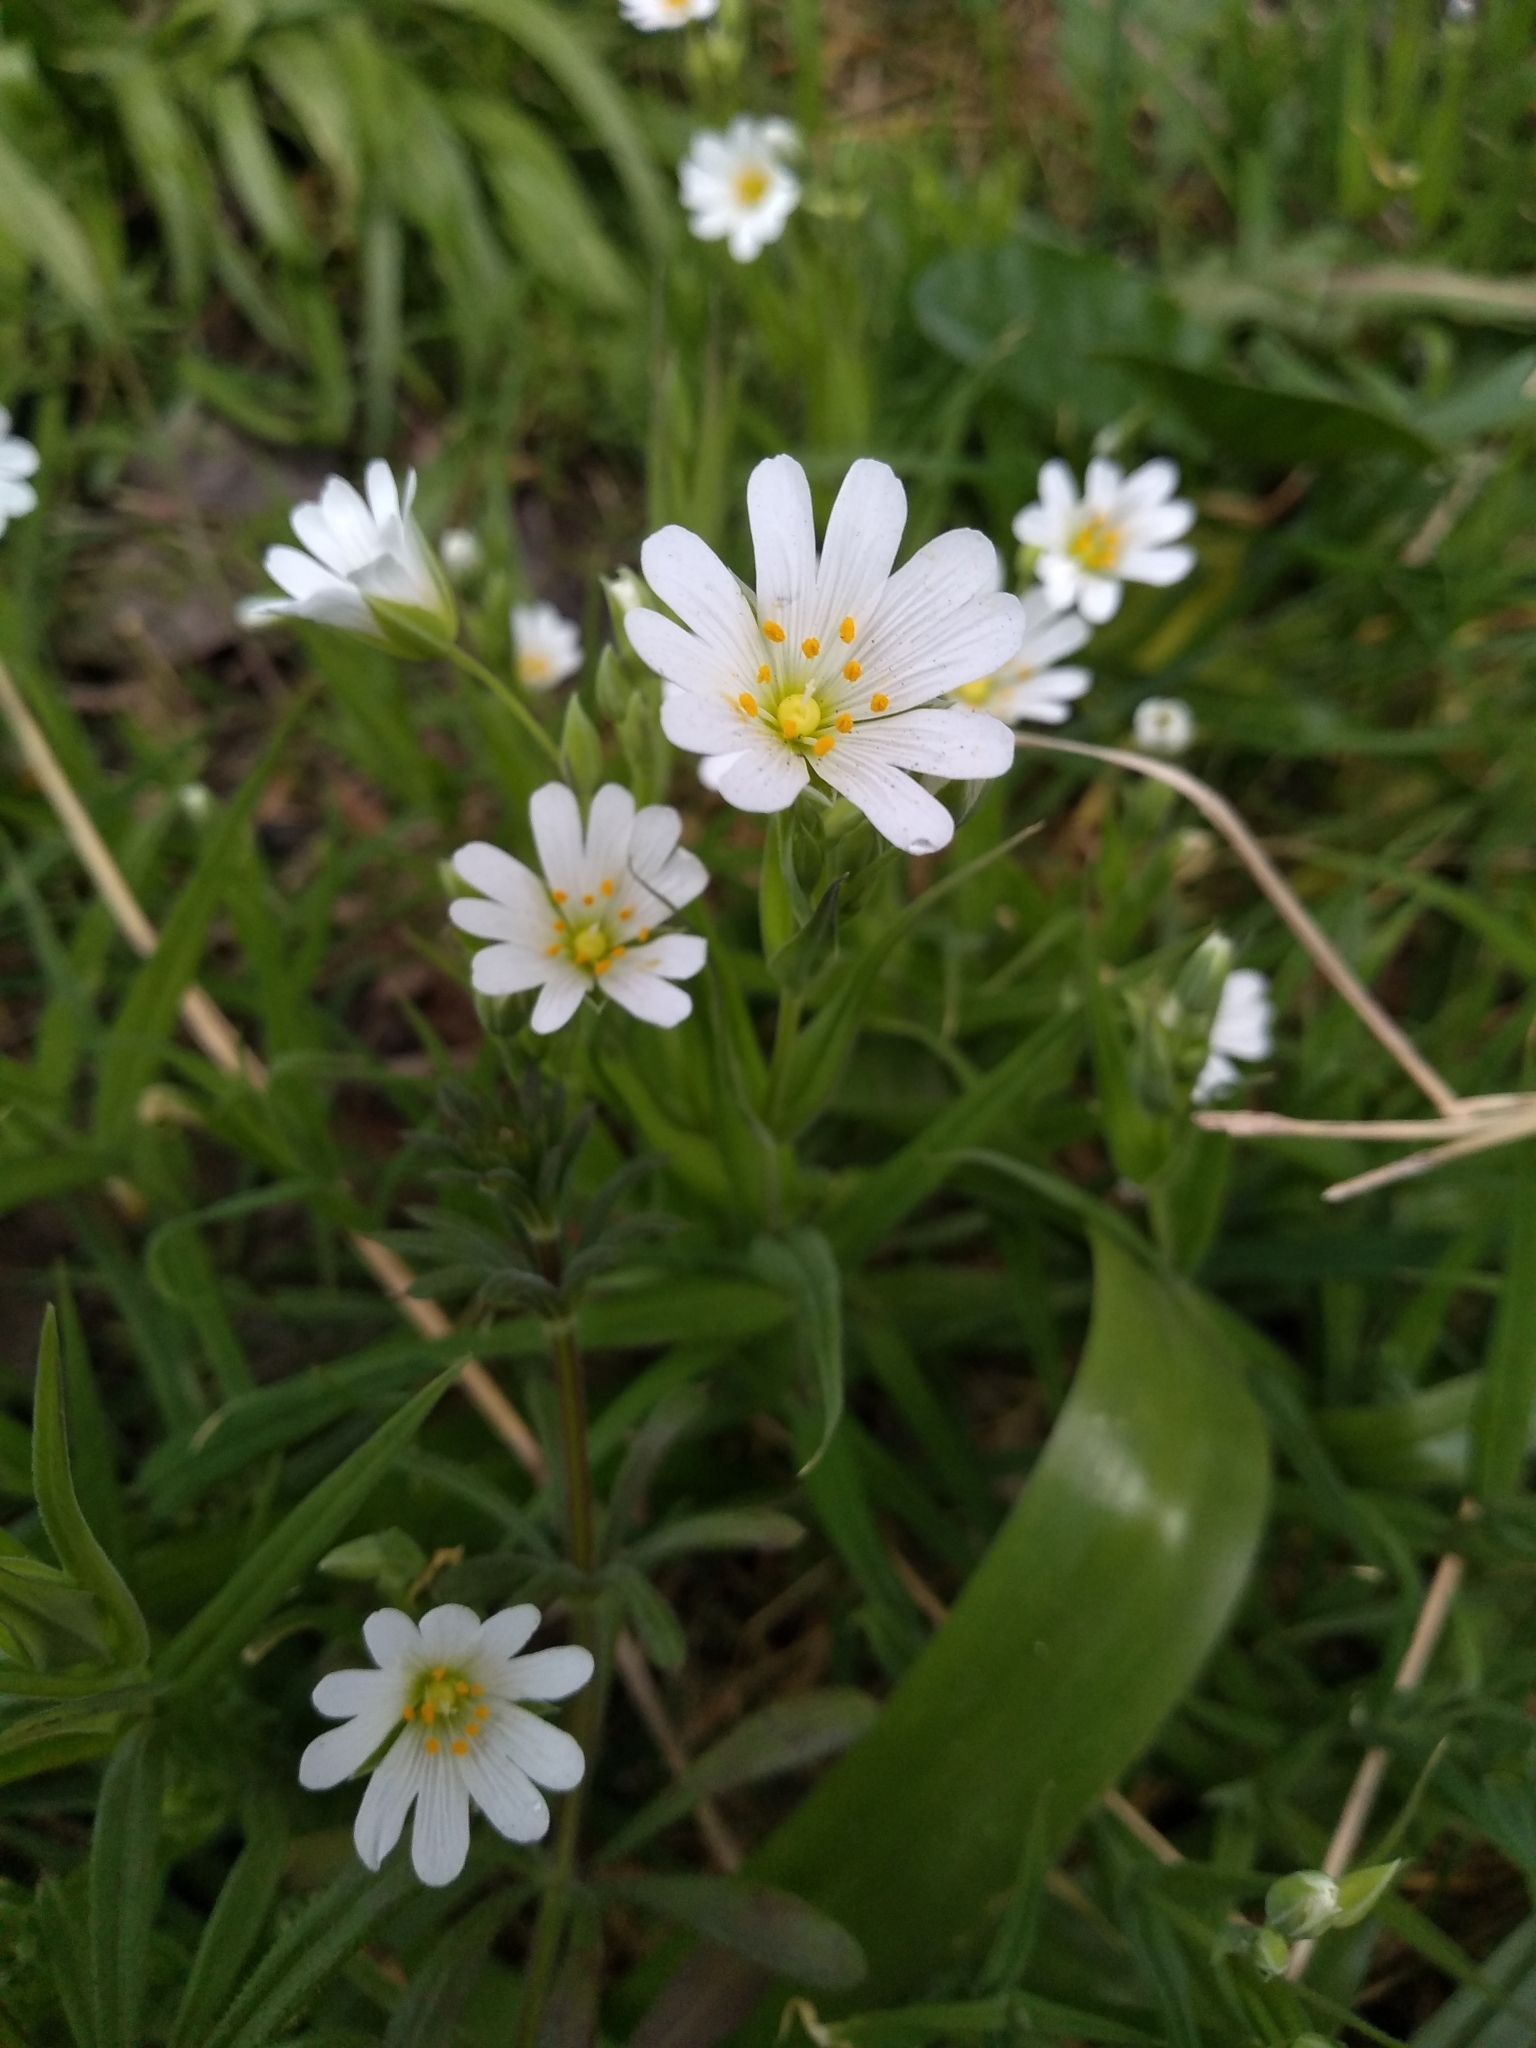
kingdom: Plantae
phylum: Tracheophyta
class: Magnoliopsida
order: Caryophyllales
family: Caryophyllaceae
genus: Rabelera
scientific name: Rabelera holostea
